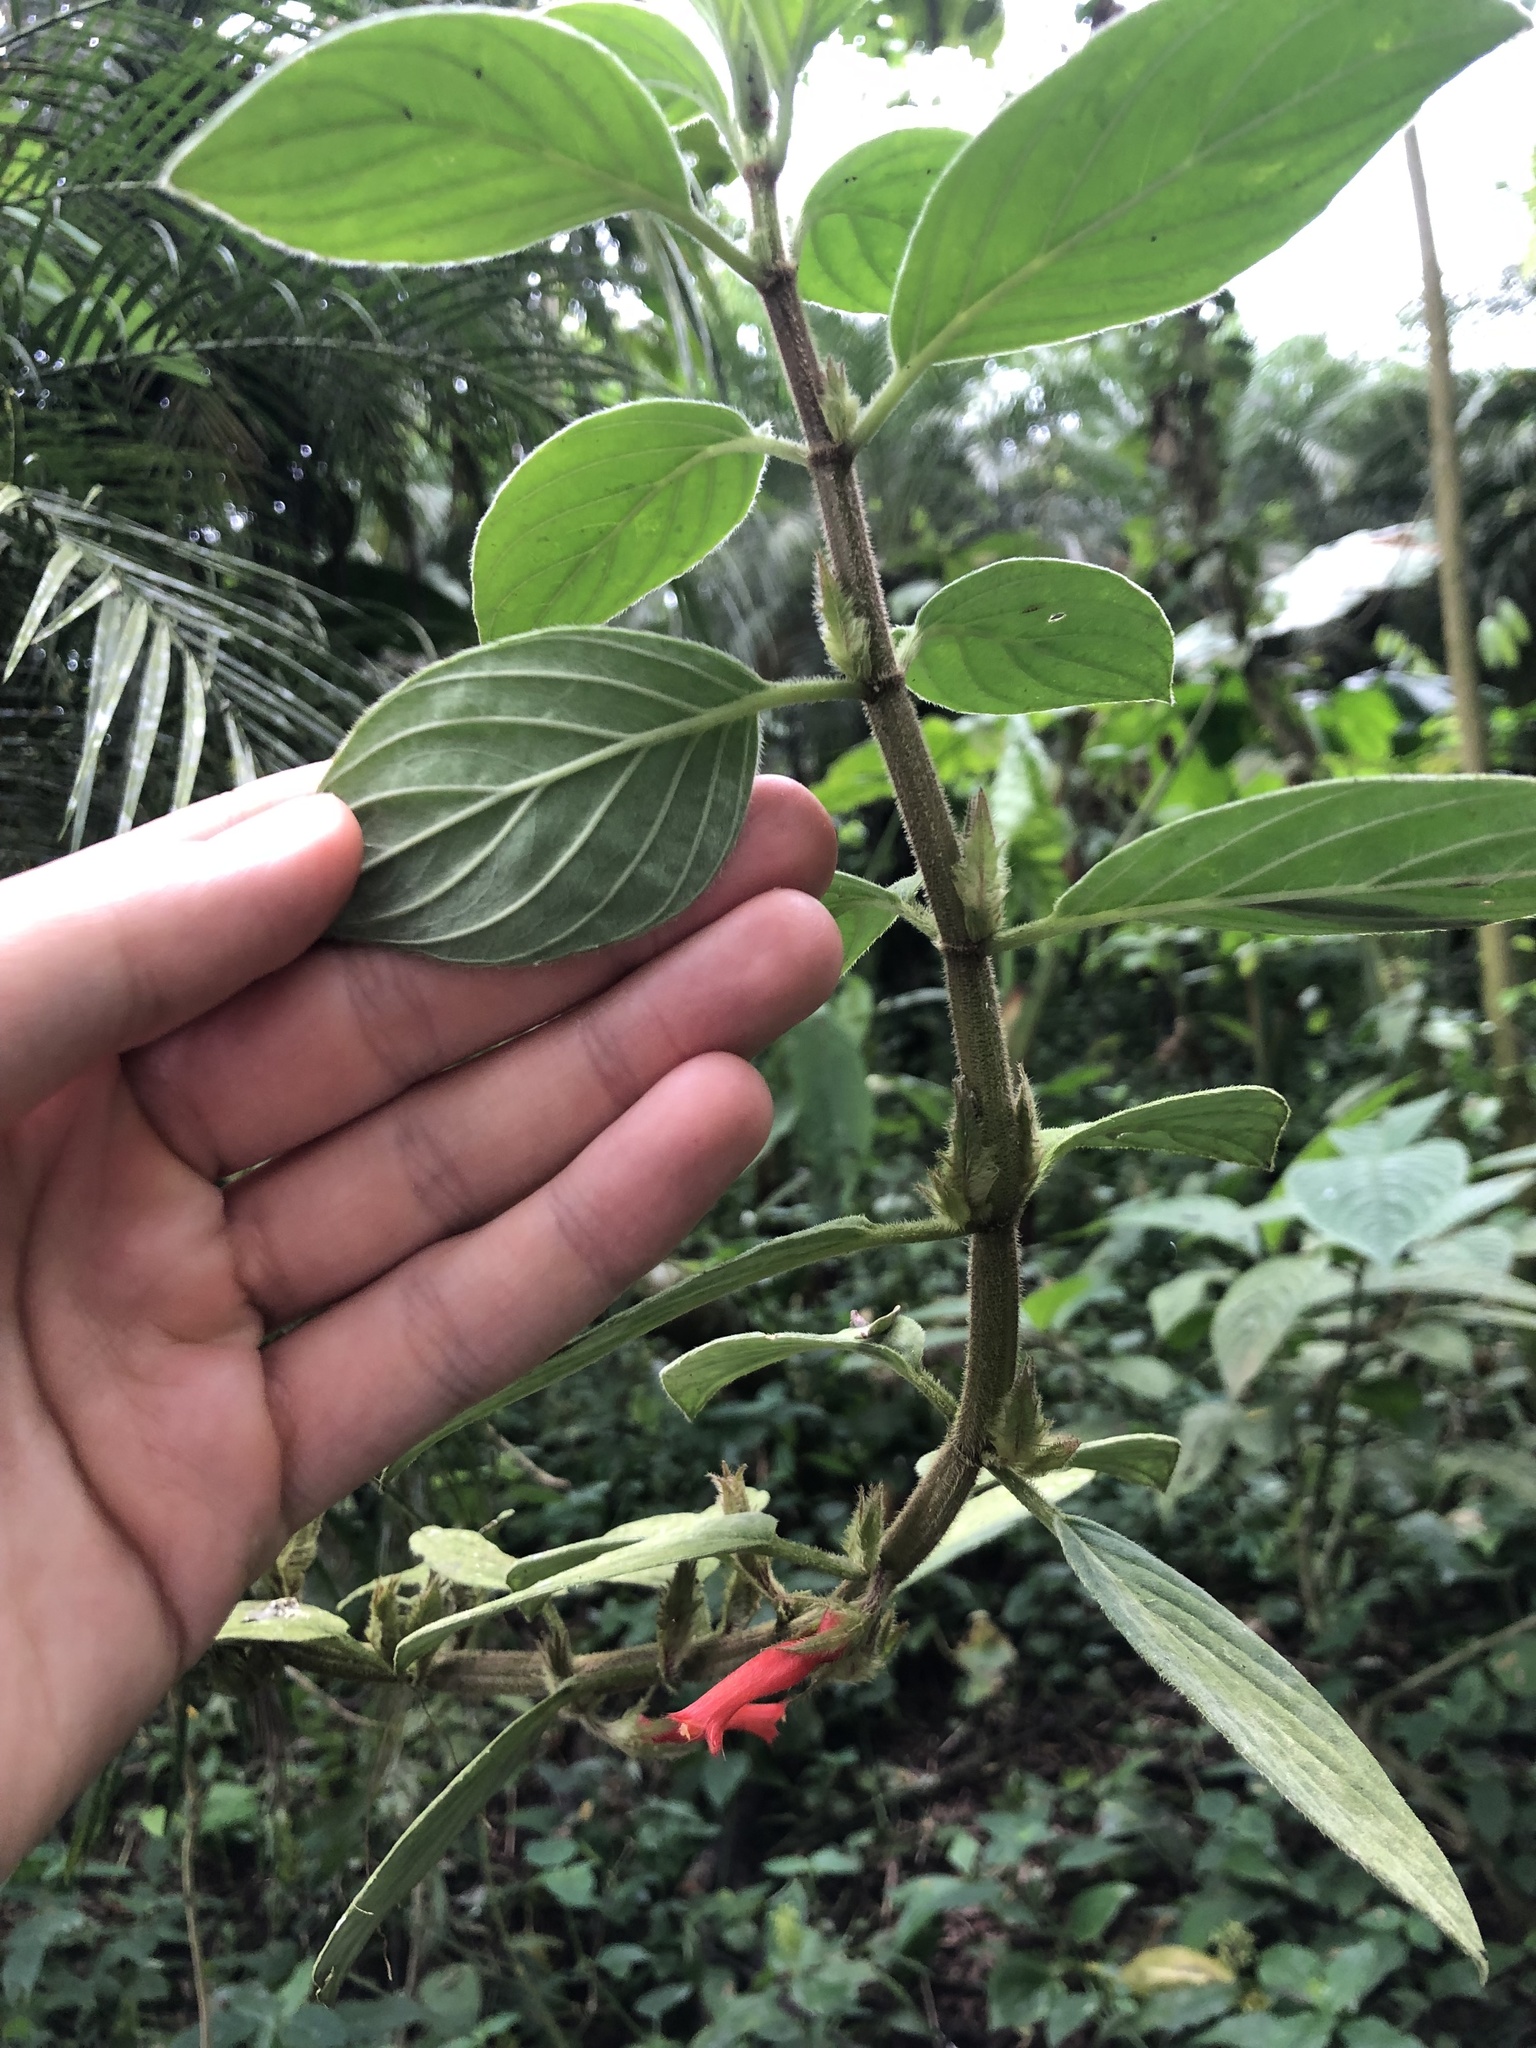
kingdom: Plantae
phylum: Tracheophyta
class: Magnoliopsida
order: Lamiales
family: Gesneriaceae
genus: Columnea
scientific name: Columnea angustata
